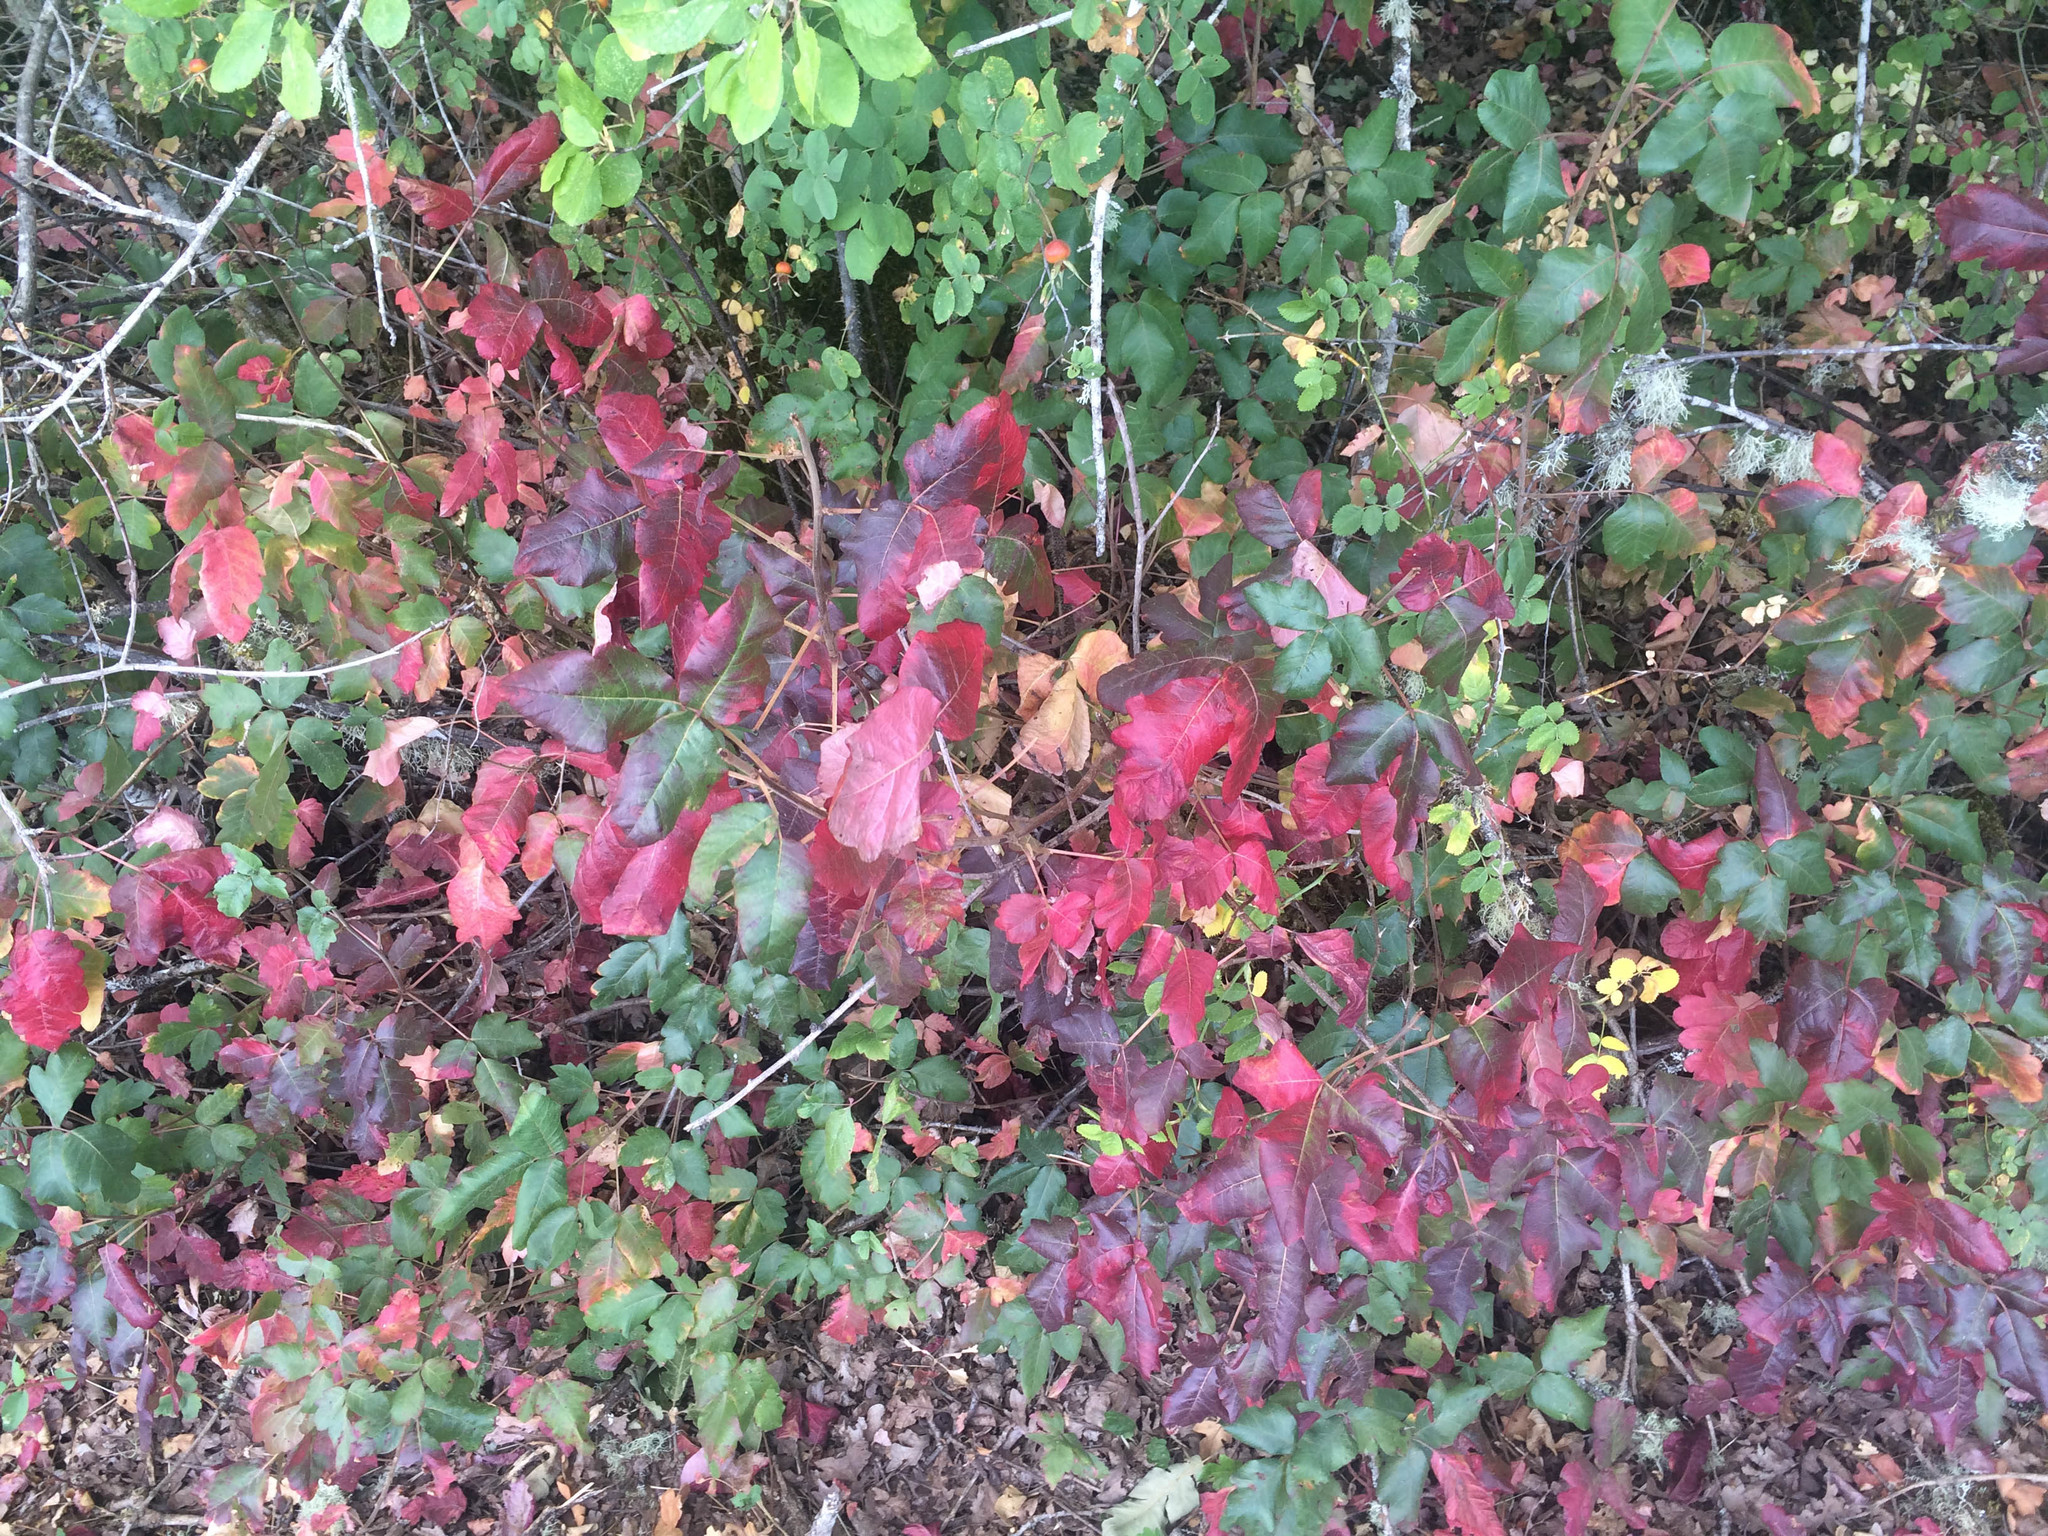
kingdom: Plantae
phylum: Tracheophyta
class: Magnoliopsida
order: Sapindales
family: Anacardiaceae
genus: Toxicodendron
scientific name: Toxicodendron diversilobum
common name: Pacific poison-oak
